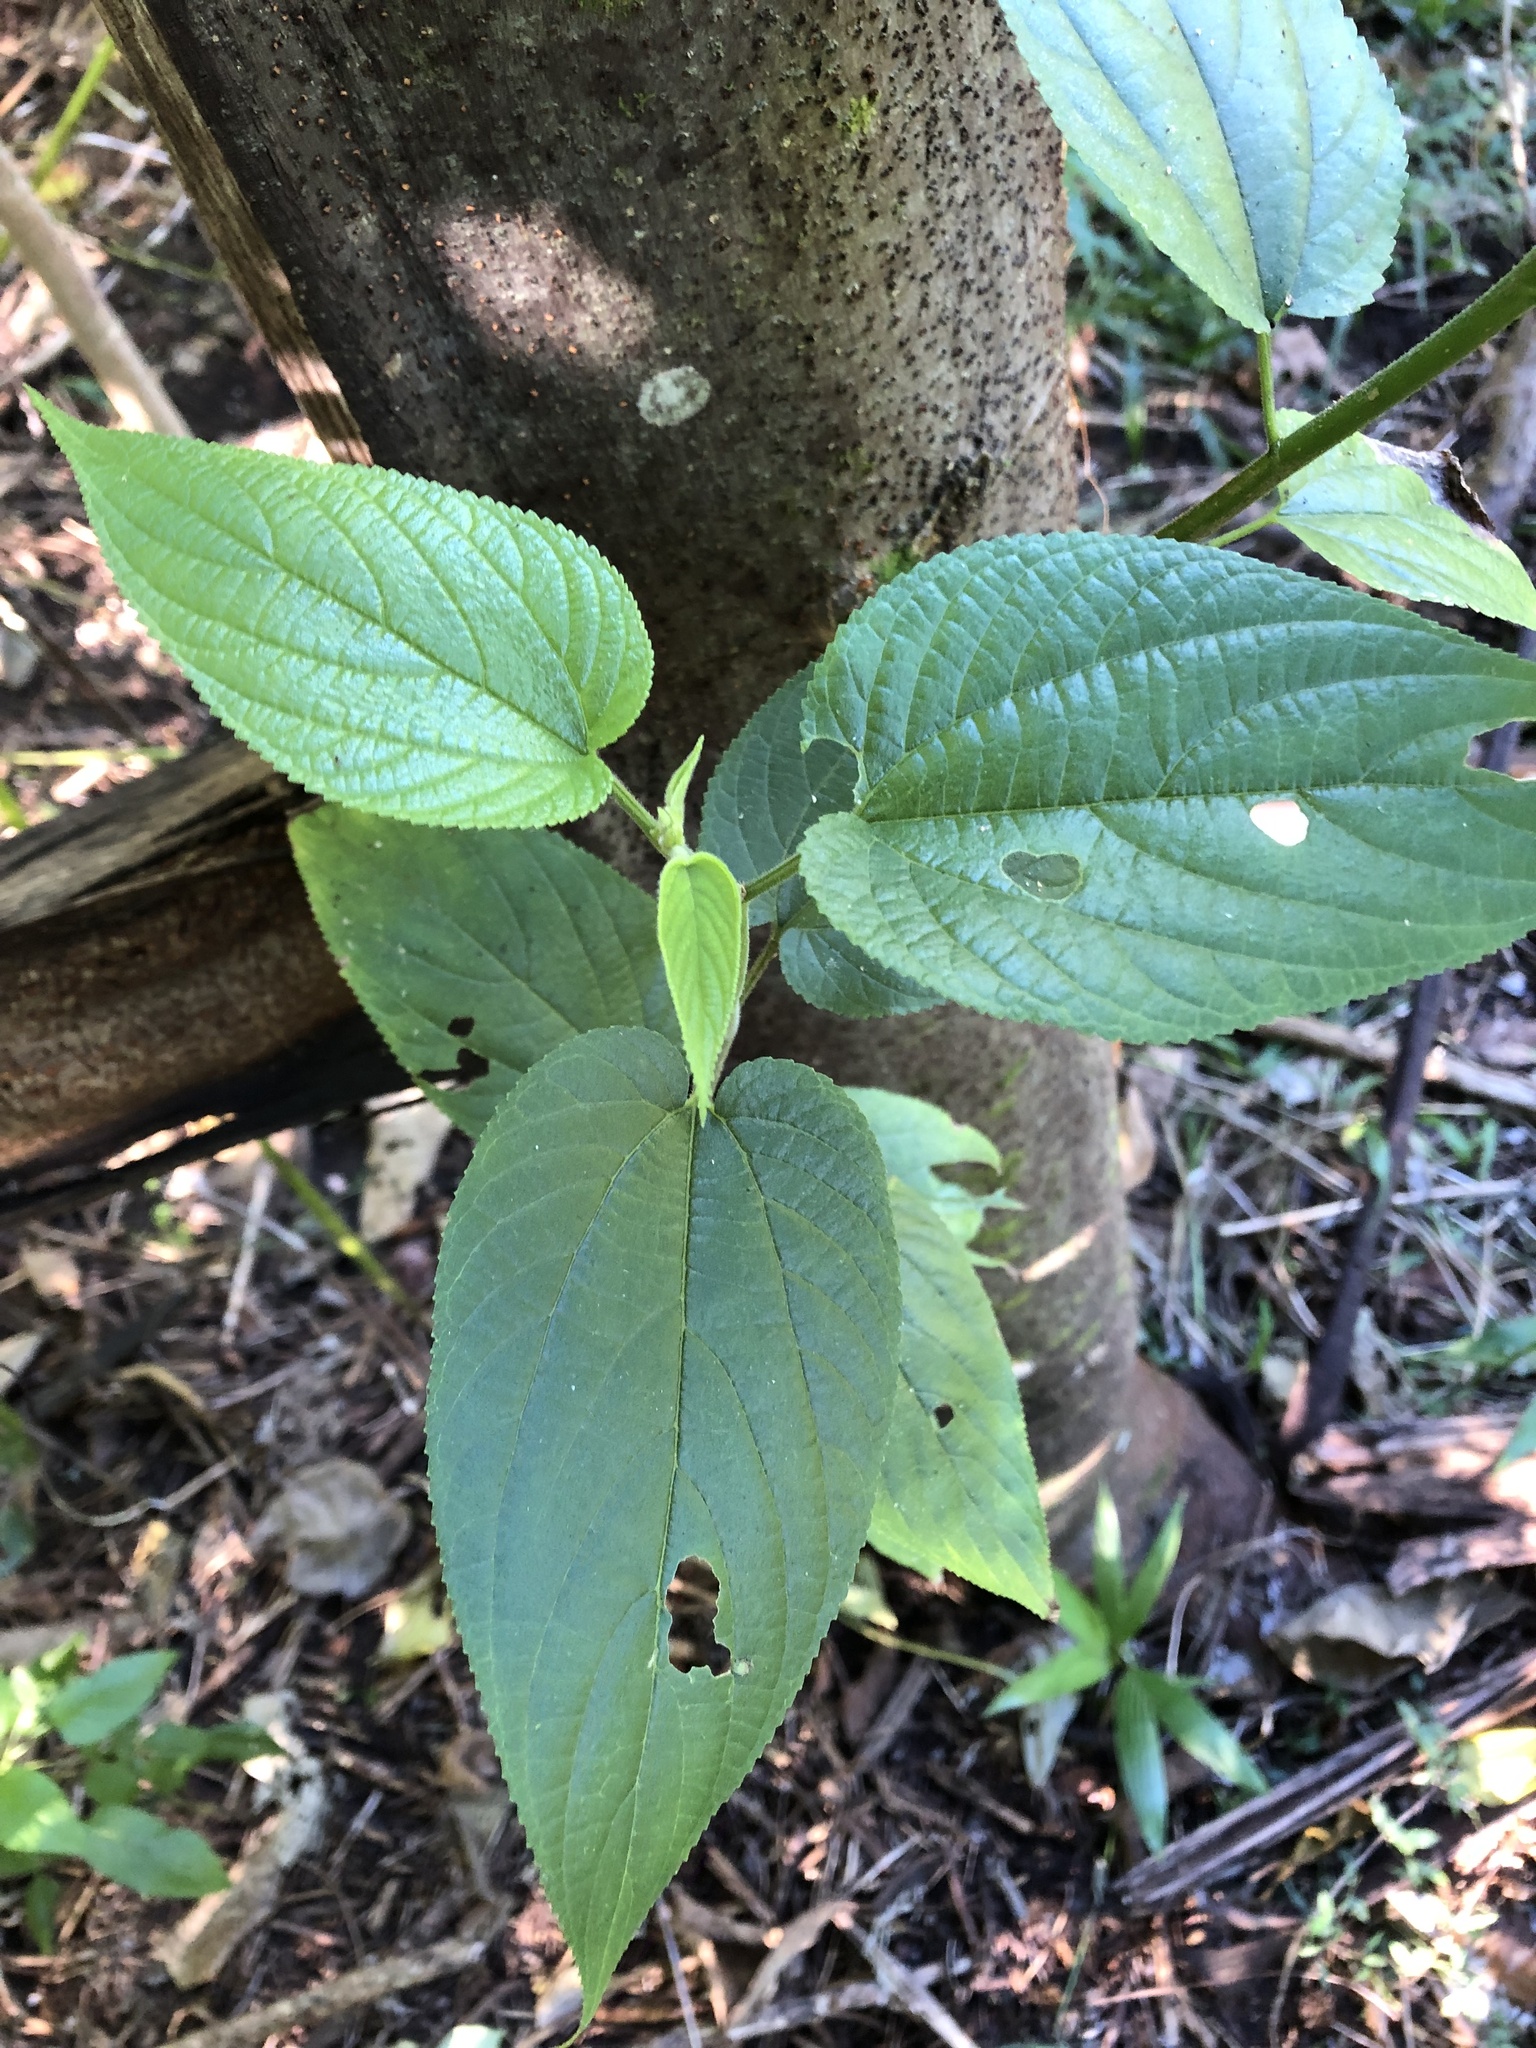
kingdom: Plantae
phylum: Tracheophyta
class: Magnoliopsida
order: Rosales
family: Cannabaceae
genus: Trema
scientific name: Trema tomentosum
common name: Peach-leaf-poisonbush
